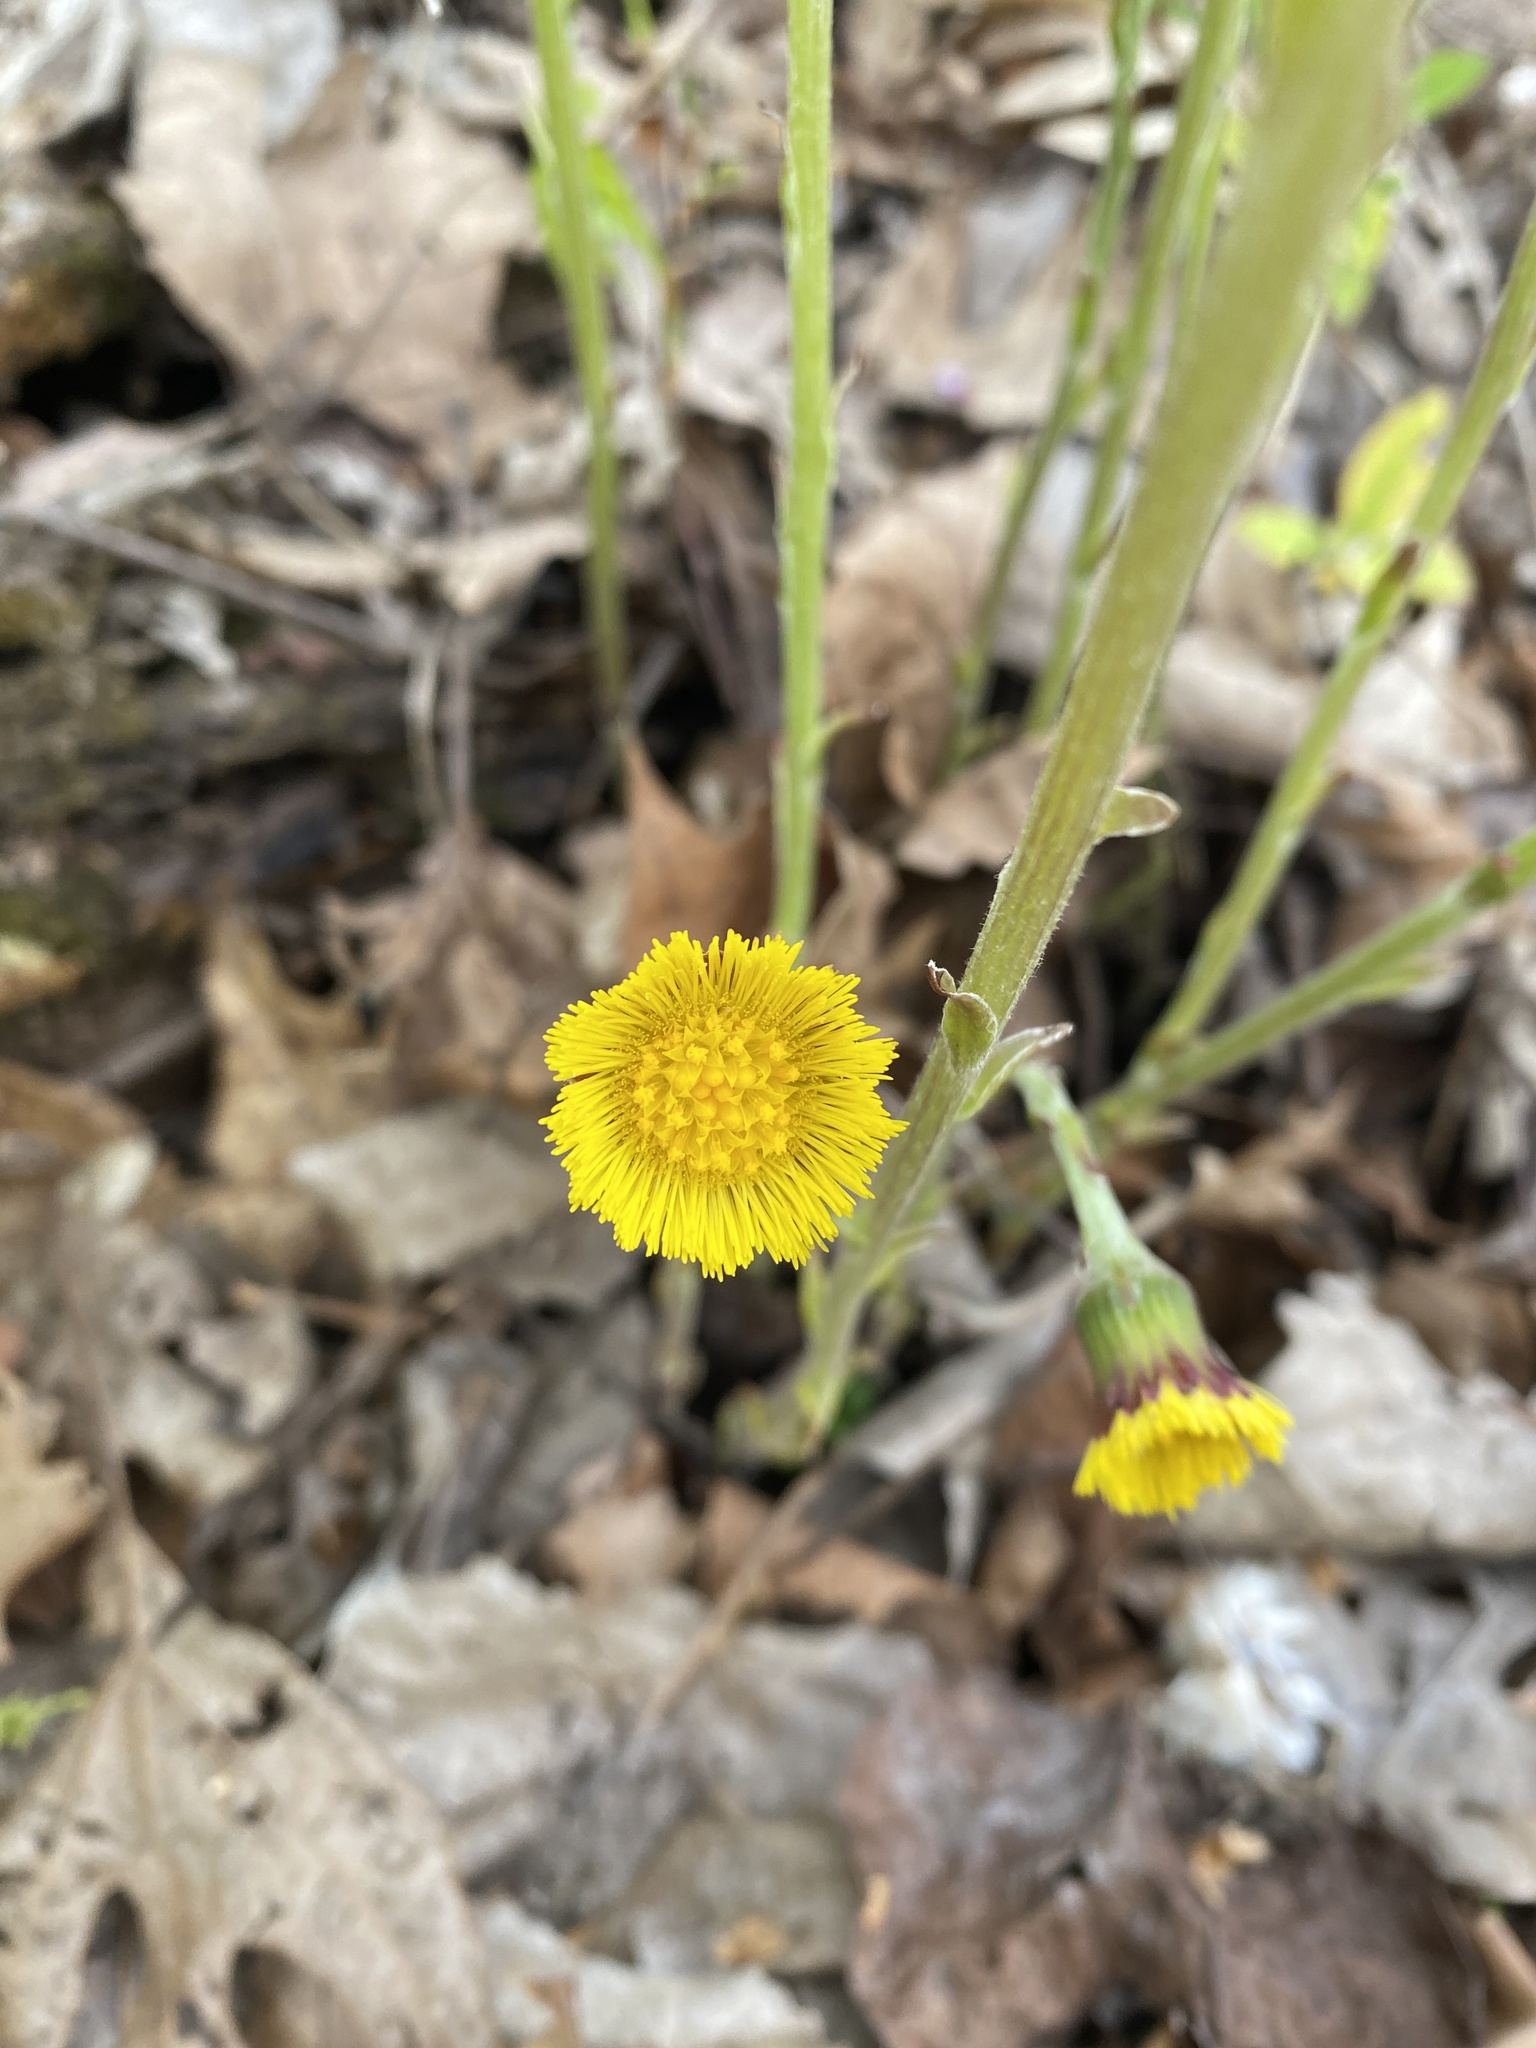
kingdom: Plantae
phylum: Tracheophyta
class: Magnoliopsida
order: Asterales
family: Asteraceae
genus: Tussilago
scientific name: Tussilago farfara
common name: Coltsfoot
